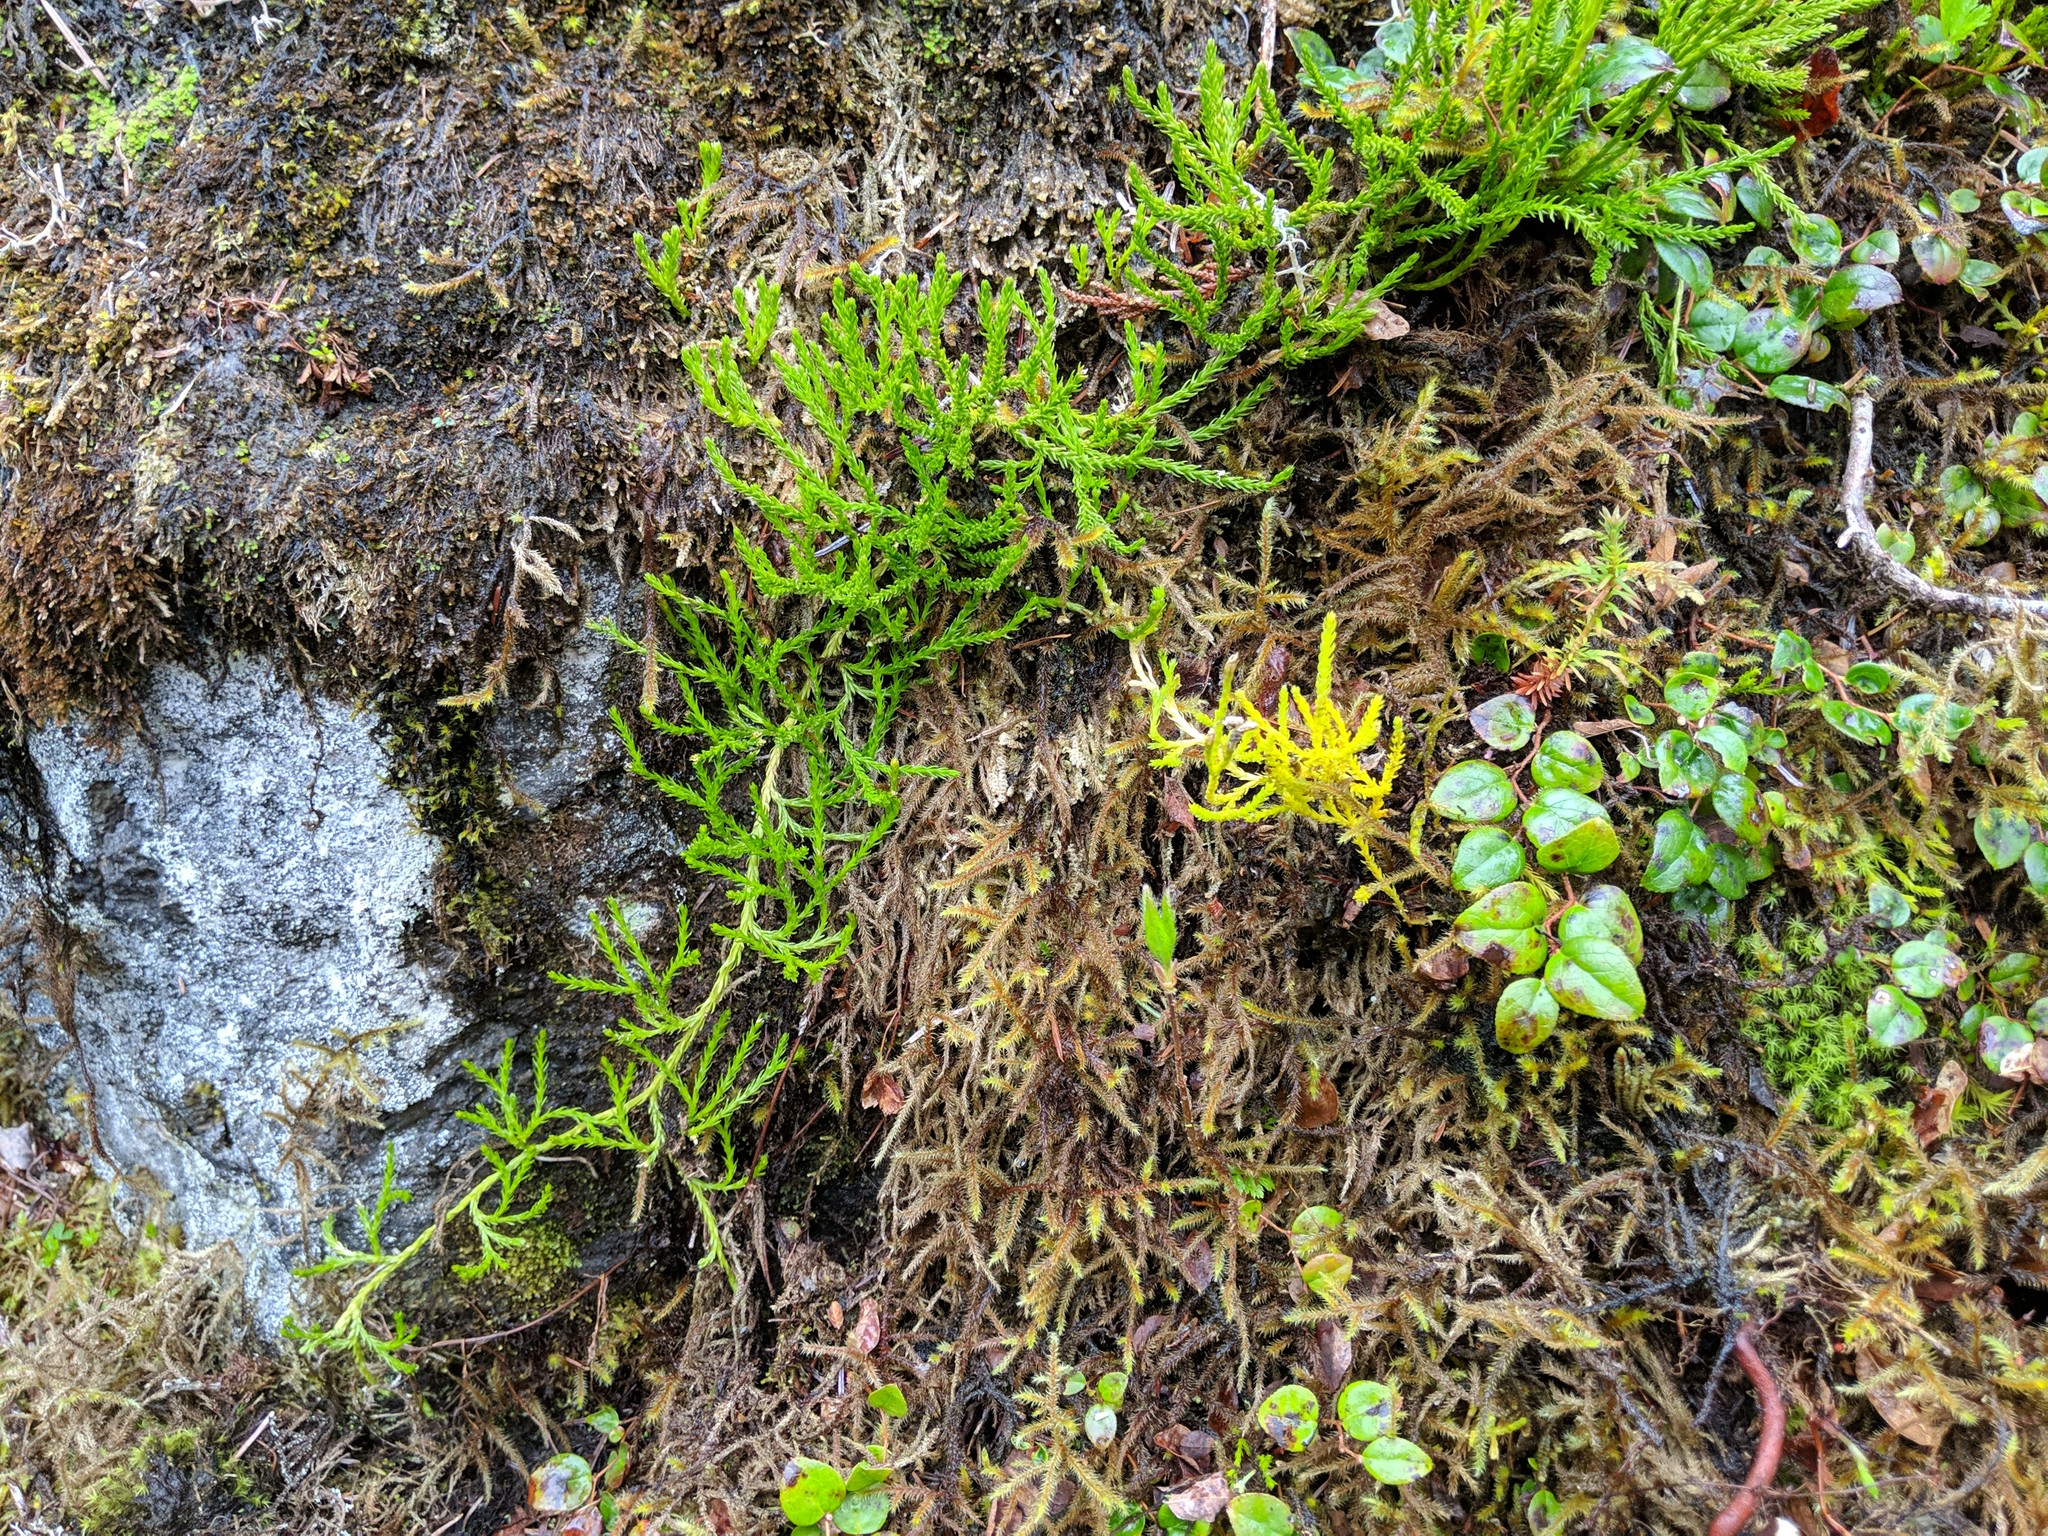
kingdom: Plantae
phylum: Tracheophyta
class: Lycopodiopsida
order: Lycopodiales
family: Lycopodiaceae
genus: Diphasiastrum
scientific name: Diphasiastrum sitchense
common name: Alaska clubmoss
